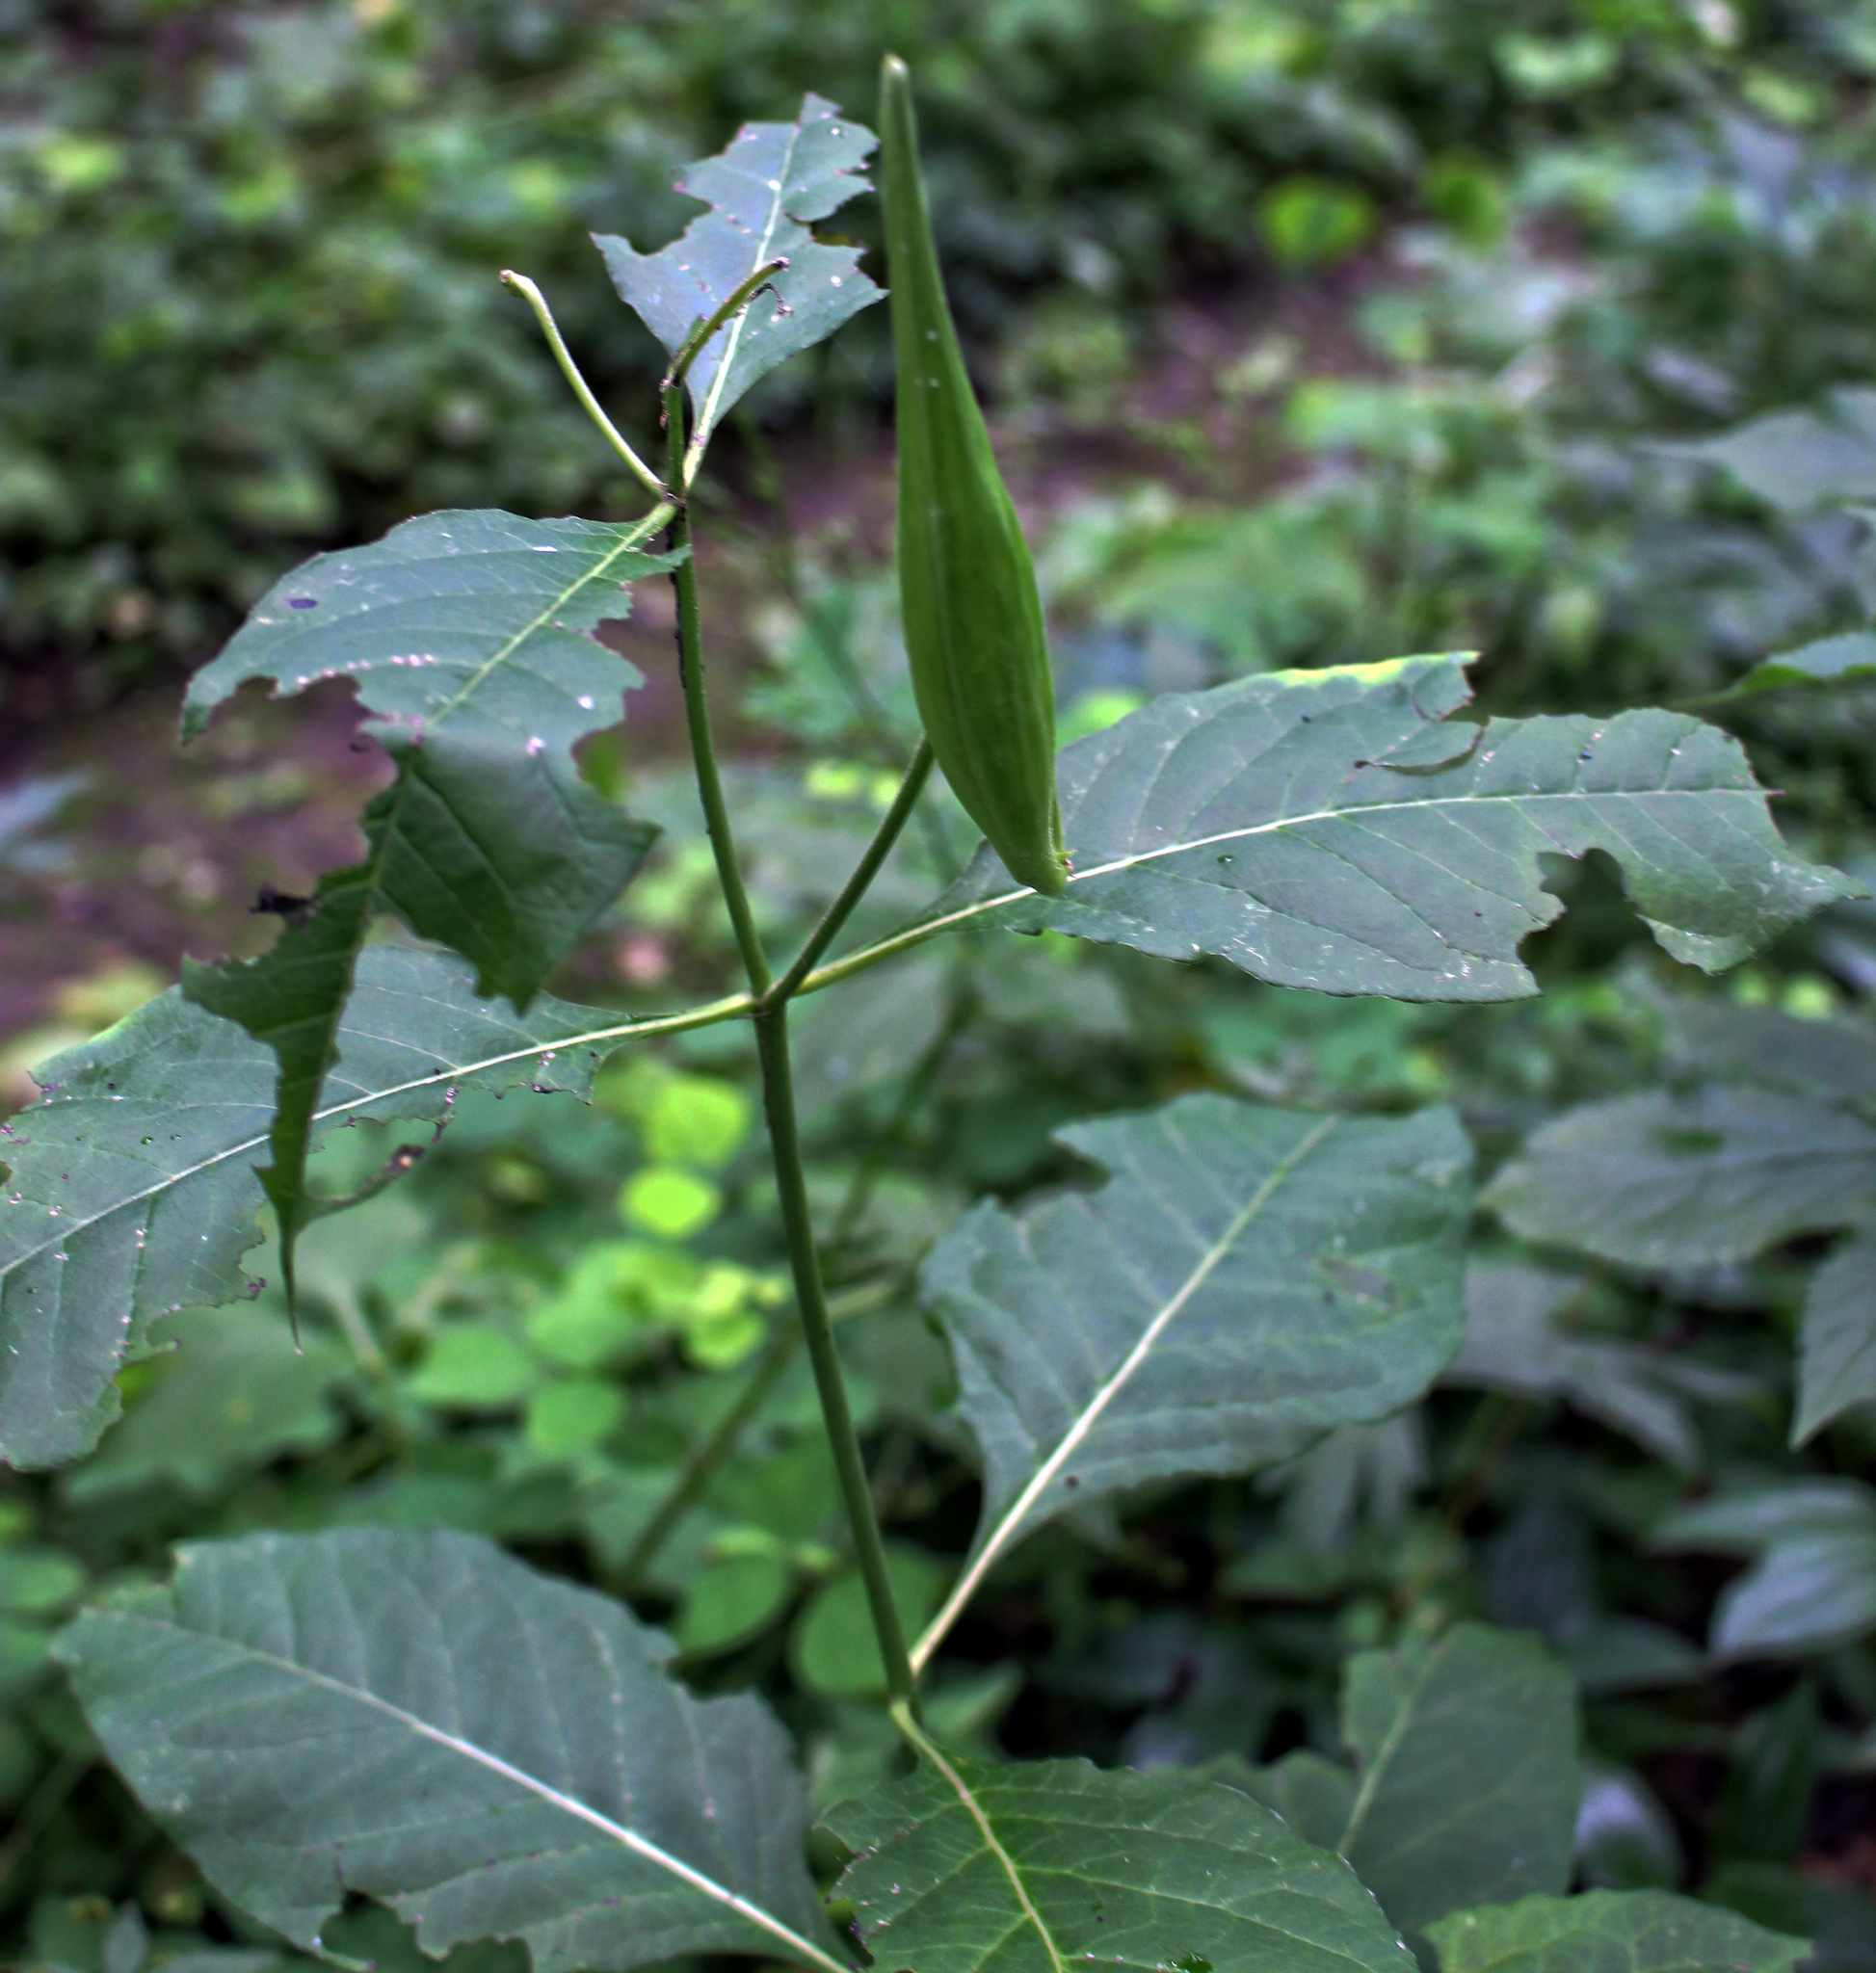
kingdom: Plantae
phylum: Tracheophyta
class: Magnoliopsida
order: Gentianales
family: Apocynaceae
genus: Asclepias
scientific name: Asclepias exaltata
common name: Poke milkweed
